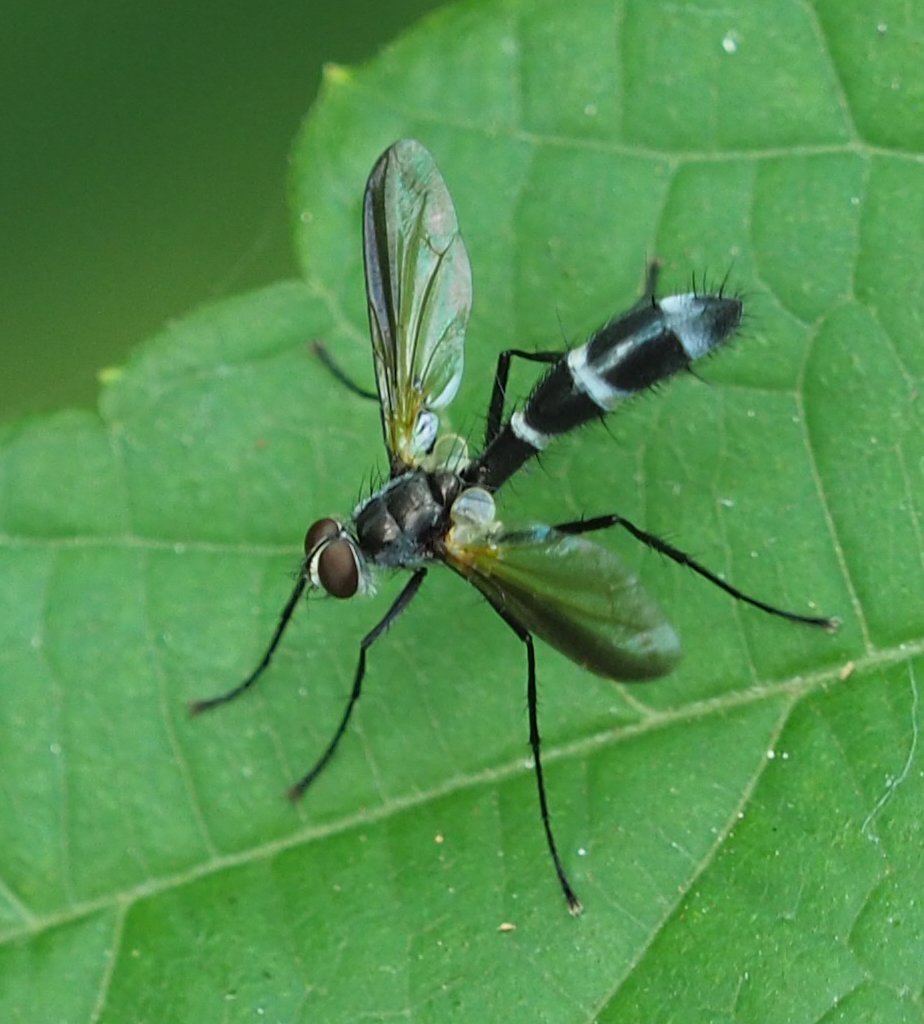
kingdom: Animalia
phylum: Arthropoda
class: Insecta
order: Diptera
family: Tachinidae
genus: Cordyligaster
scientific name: Cordyligaster septentrionalis
